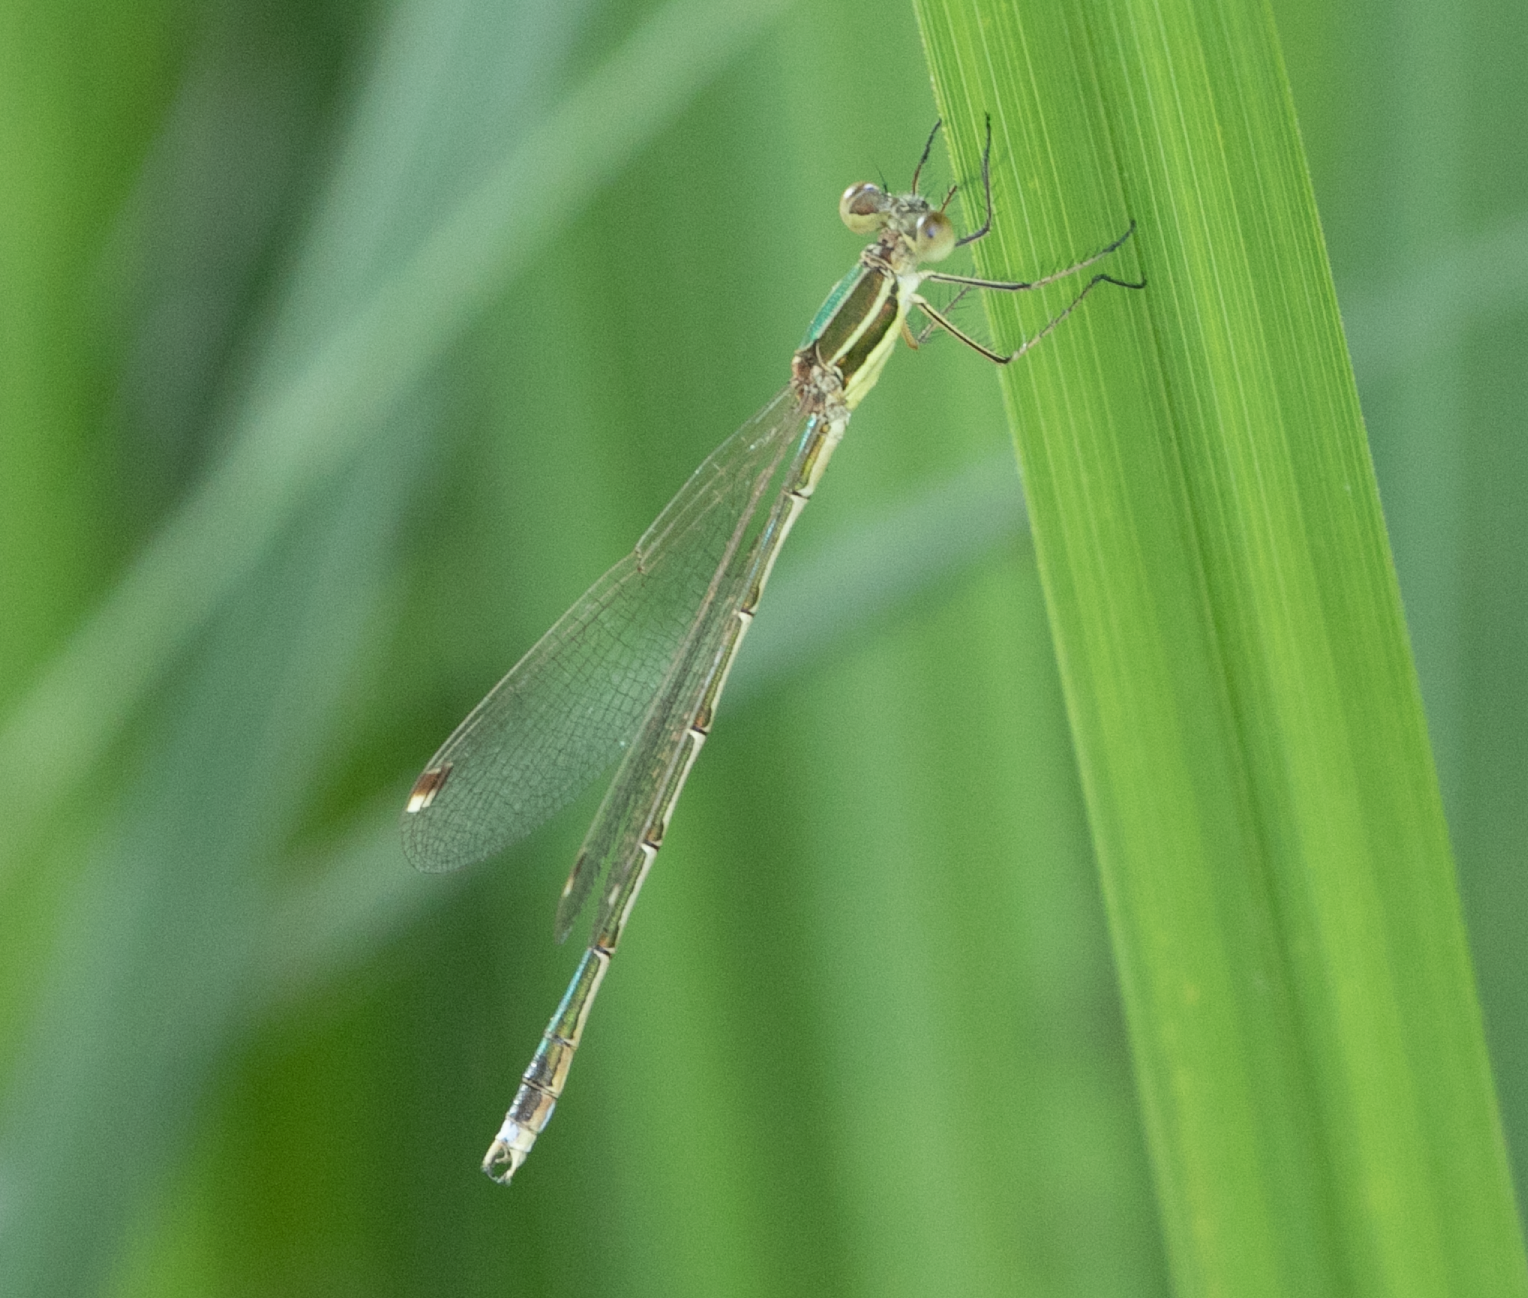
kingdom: Animalia
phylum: Arthropoda
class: Insecta
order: Odonata
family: Lestidae
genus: Lestes
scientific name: Lestes barbarus
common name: Migrant spreadwing
